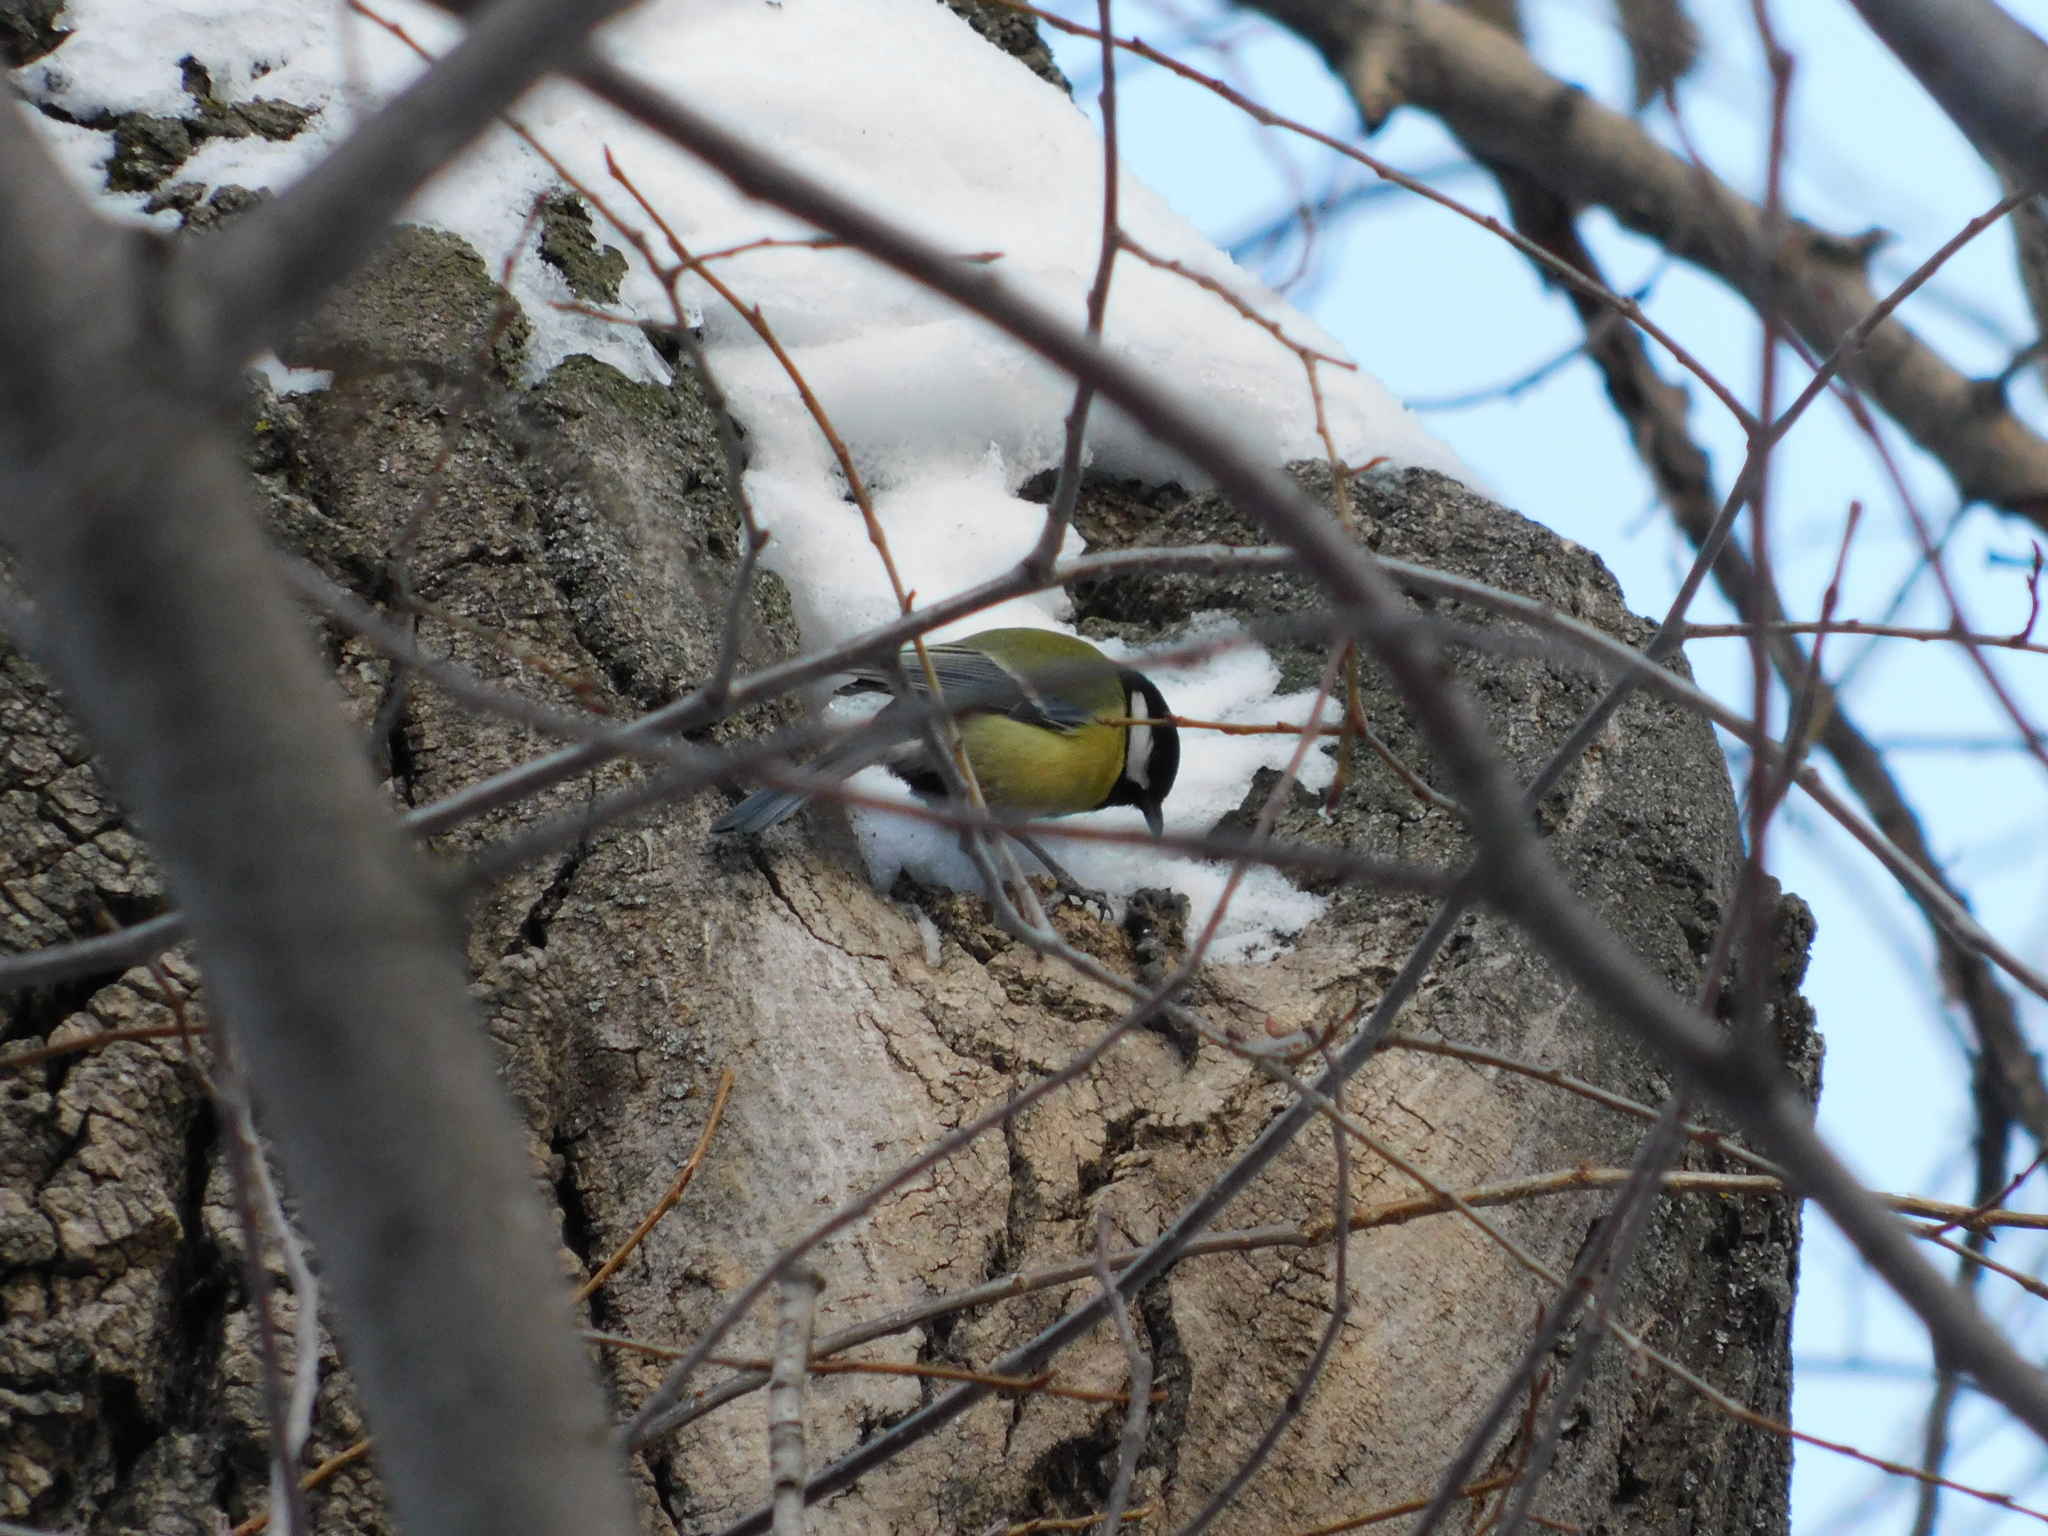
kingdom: Animalia
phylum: Chordata
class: Aves
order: Passeriformes
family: Paridae
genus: Parus
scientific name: Parus major
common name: Great tit
